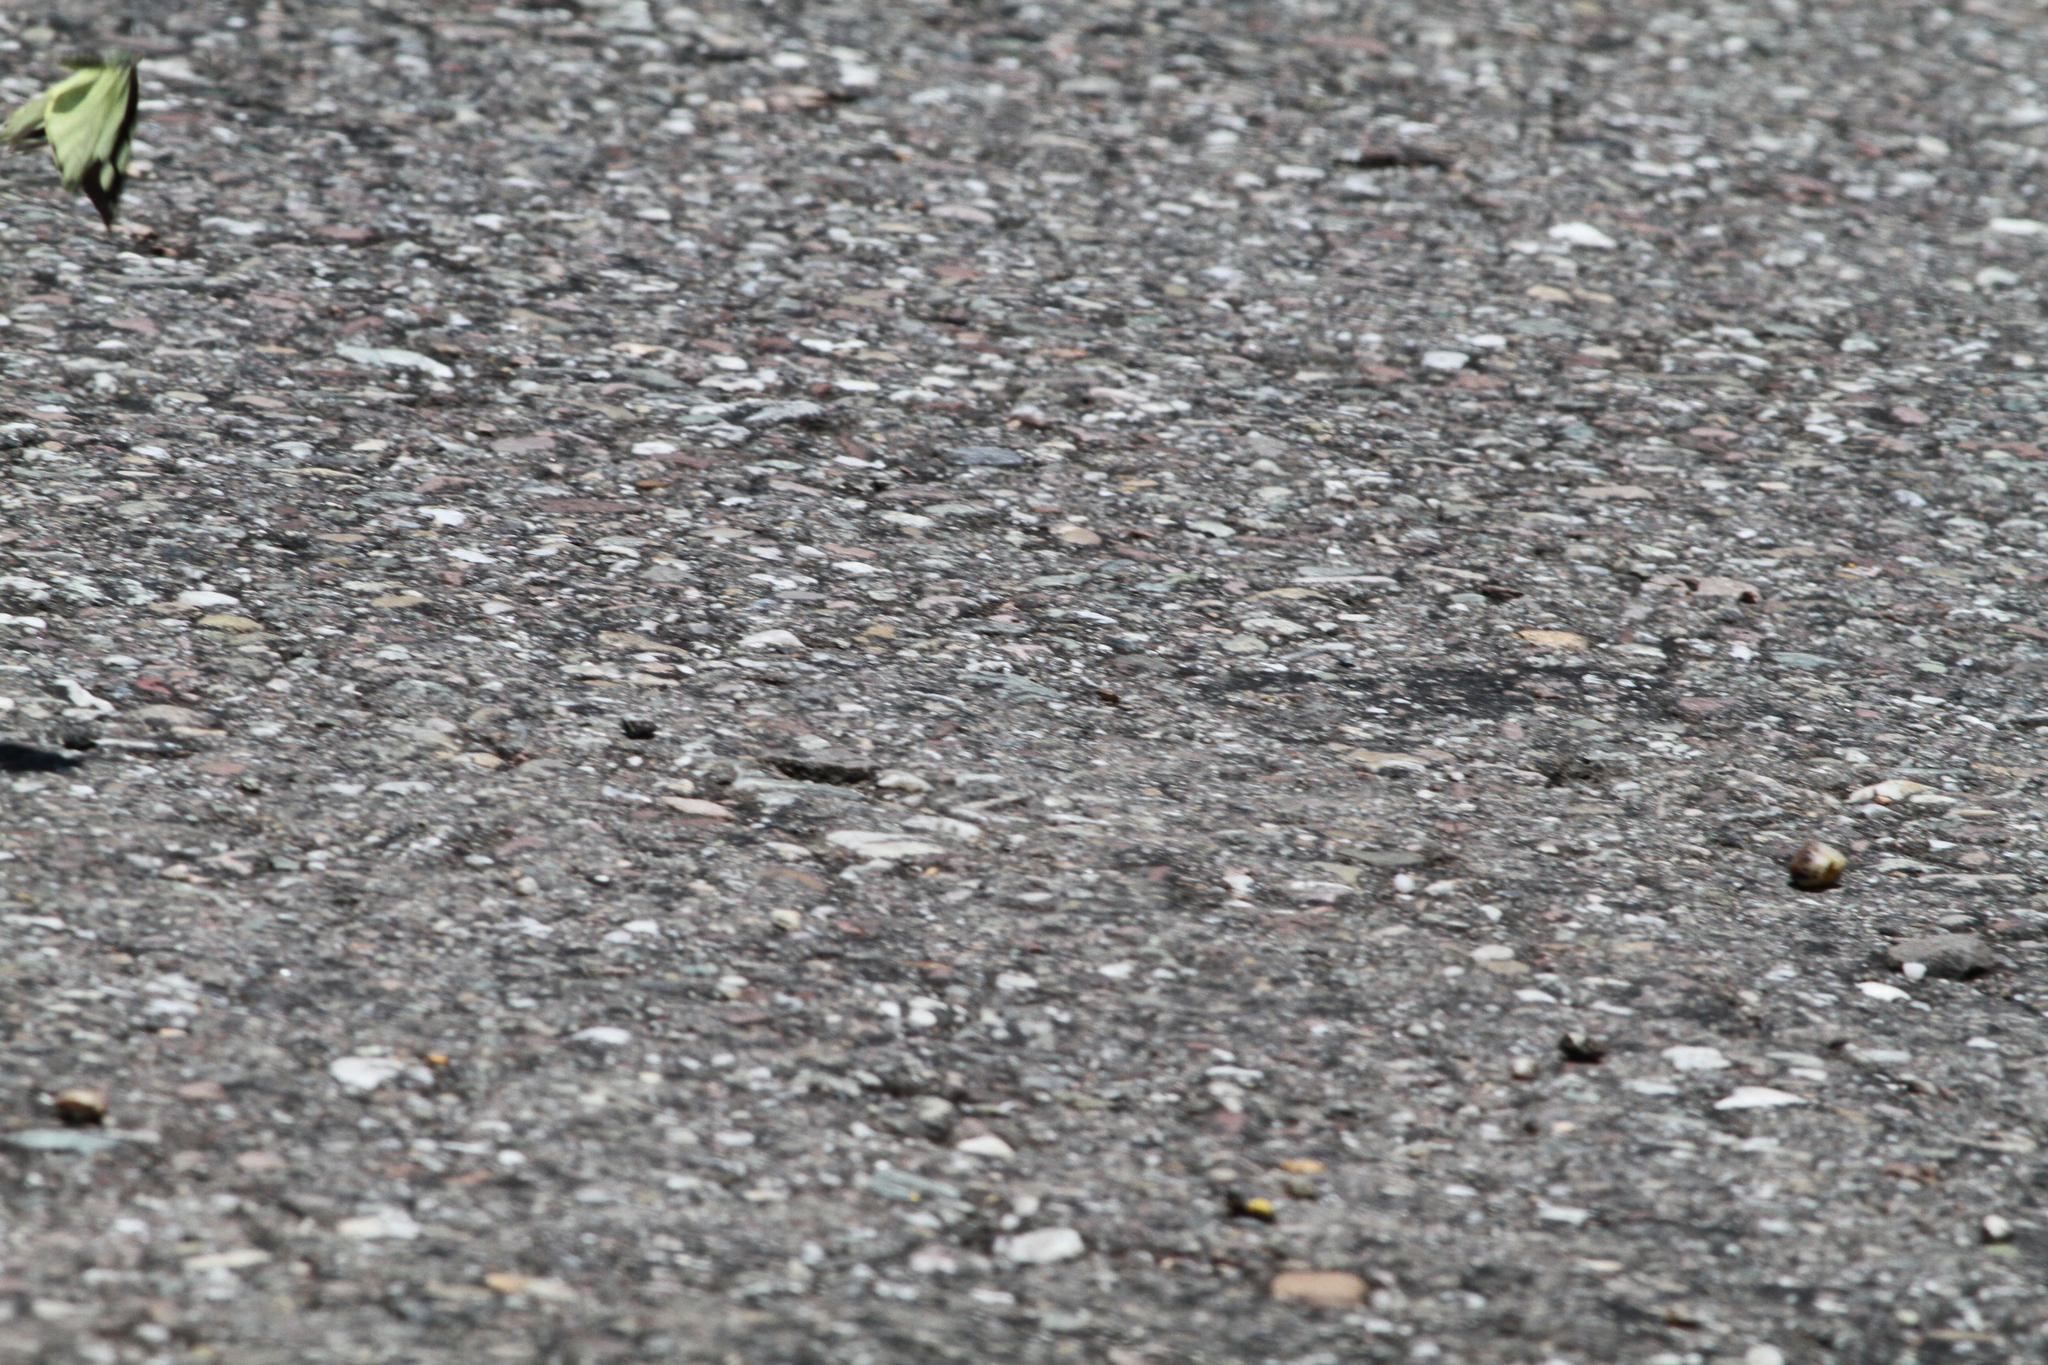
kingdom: Animalia
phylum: Arthropoda
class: Insecta
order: Lepidoptera
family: Pieridae
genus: Lieinix
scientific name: Lieinix nemesis
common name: Frosted mimic-white
